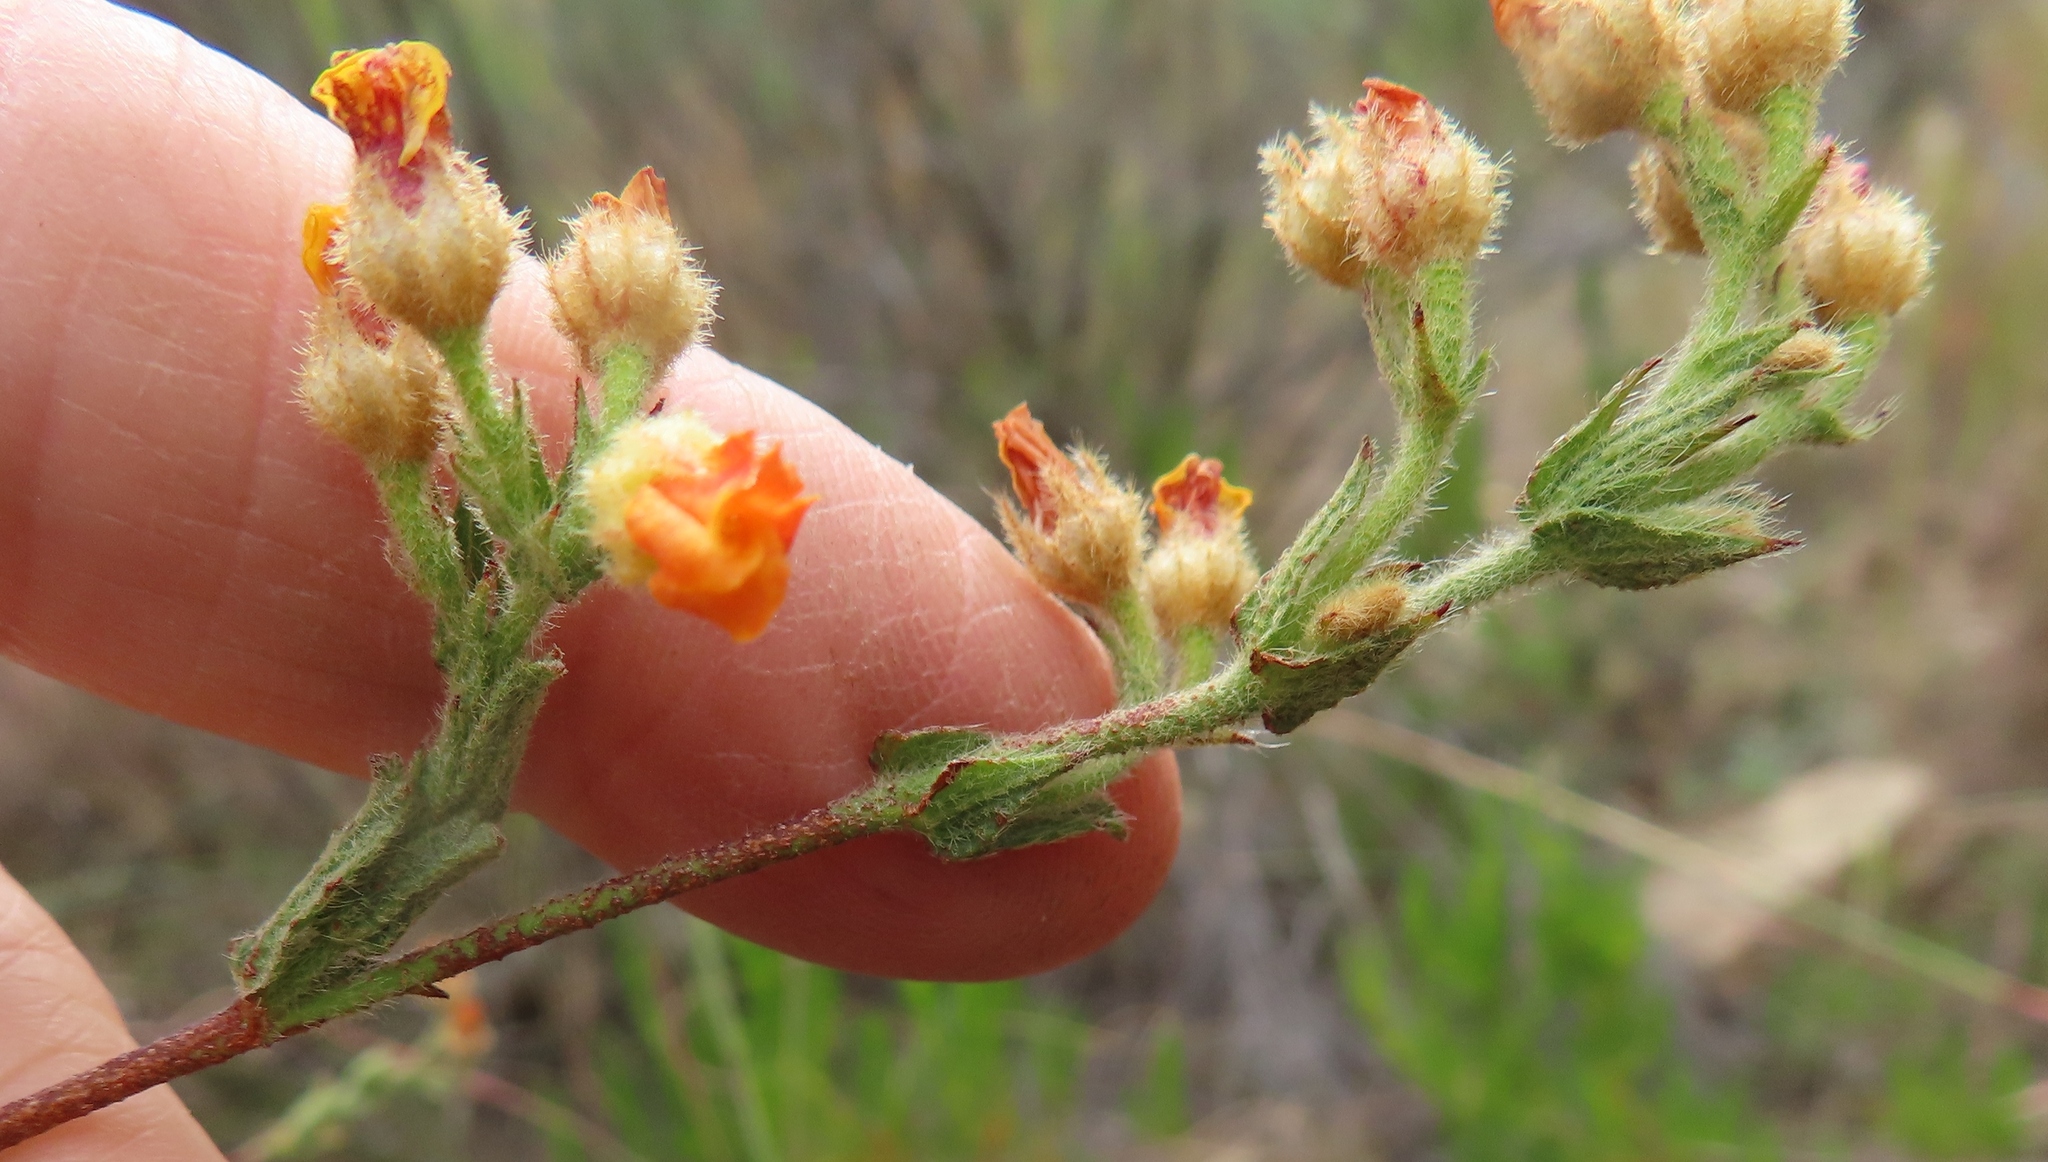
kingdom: Plantae
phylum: Tracheophyta
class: Magnoliopsida
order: Malvales
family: Malvaceae
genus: Hermannia
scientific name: Hermannia stipulacea
